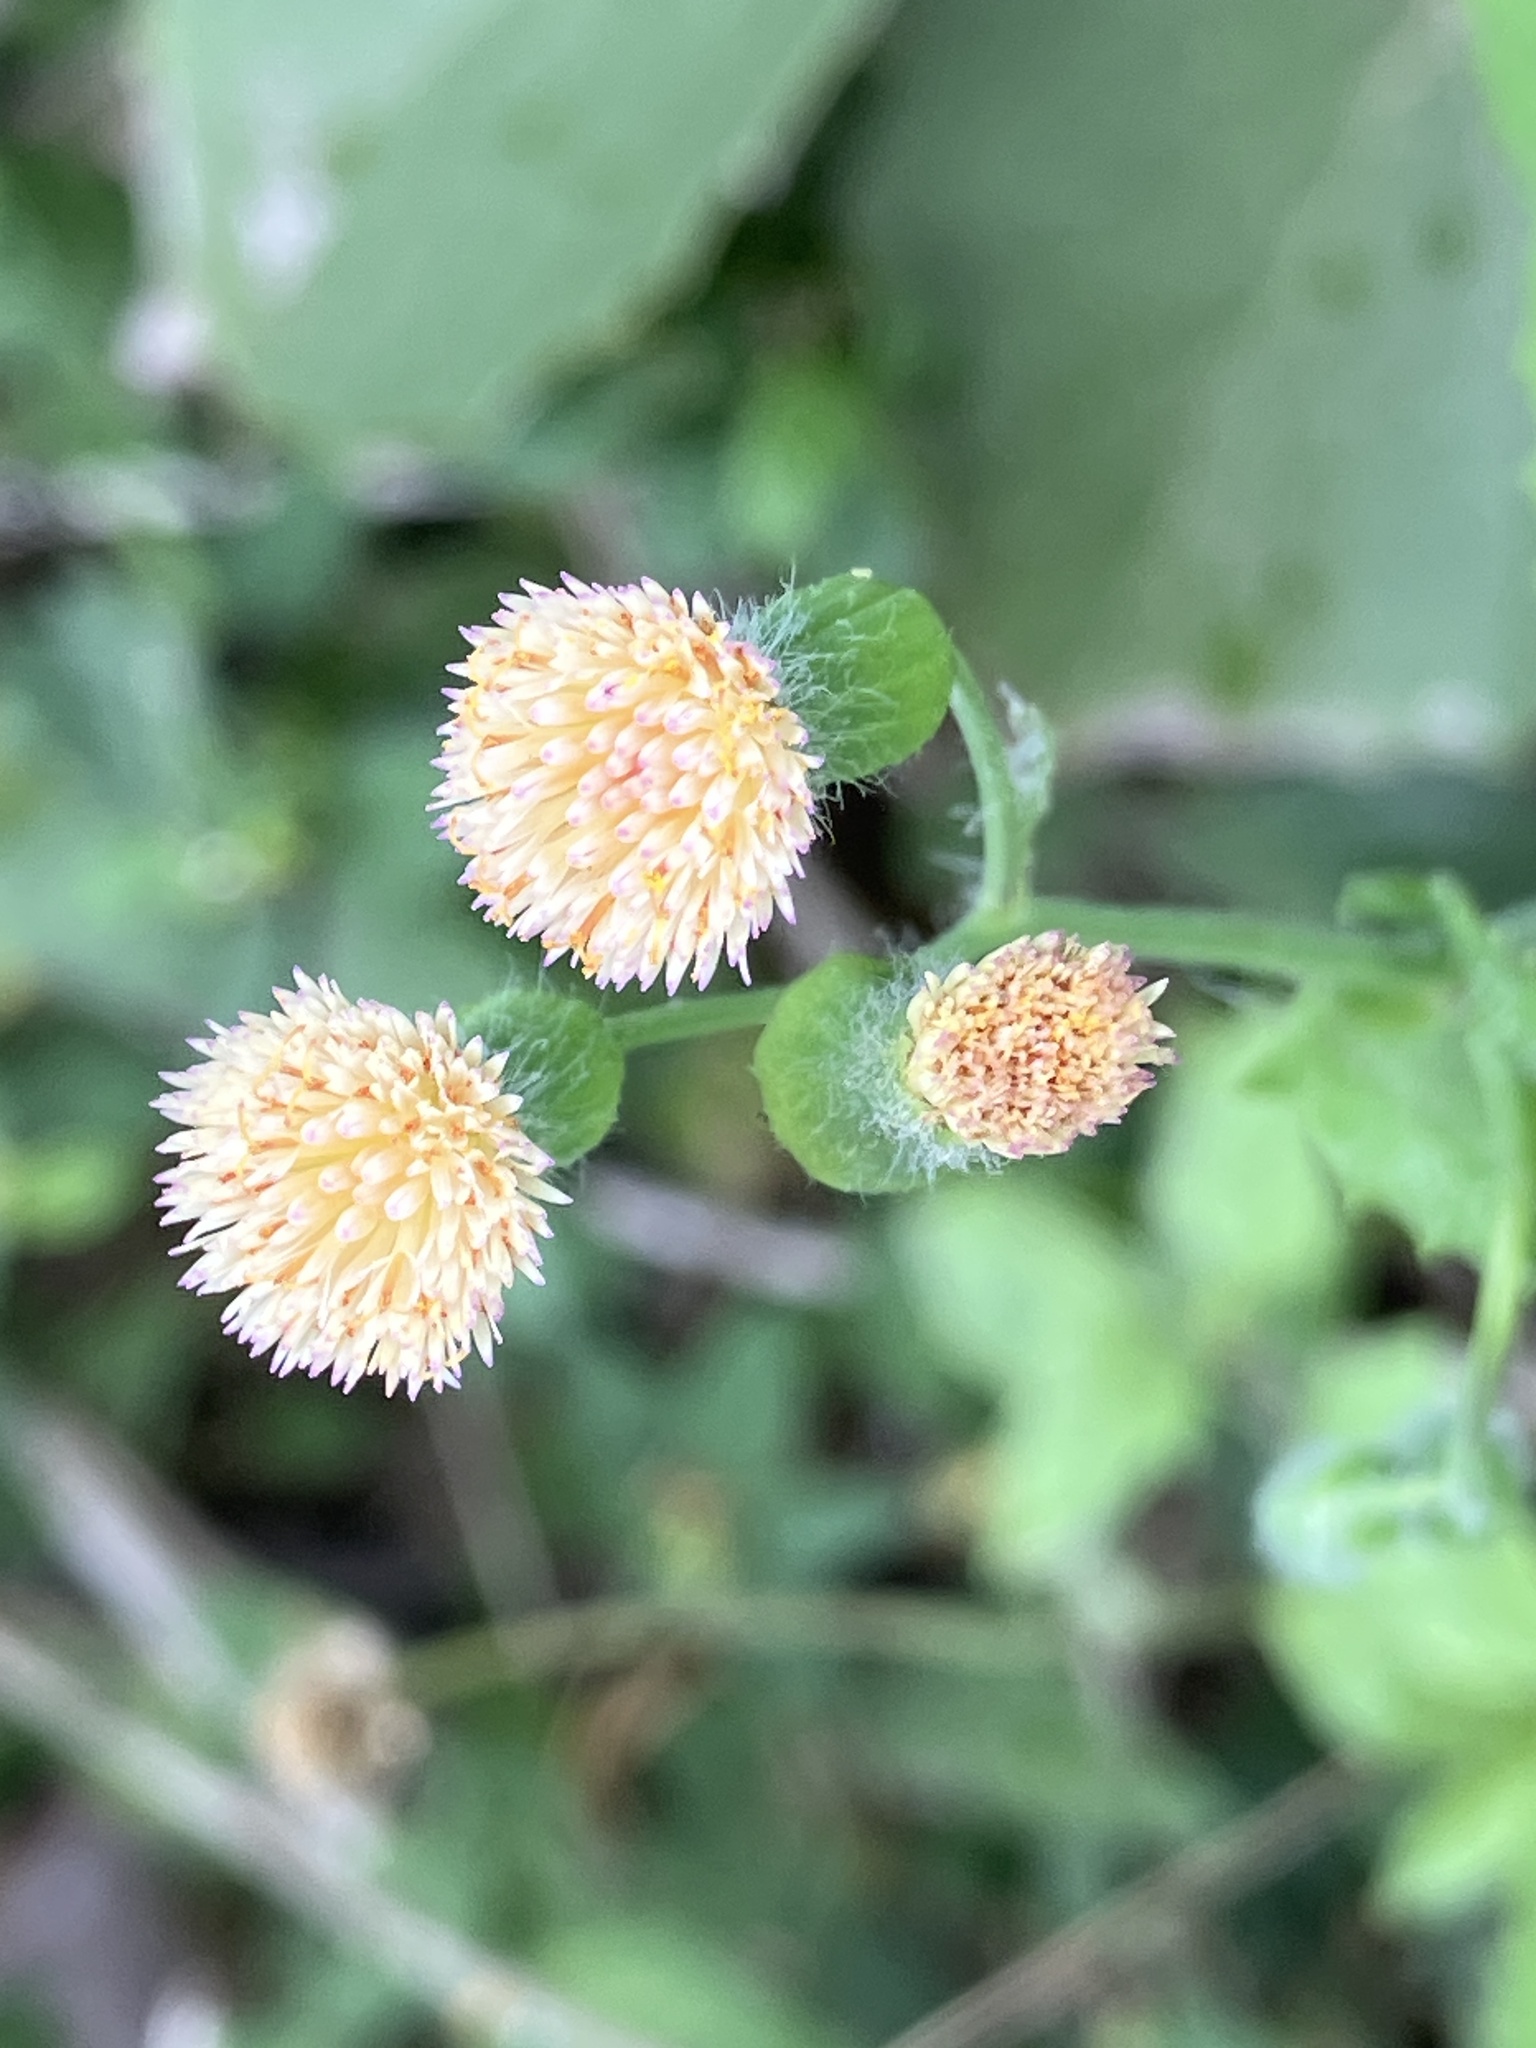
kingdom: Plantae
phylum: Tracheophyta
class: Magnoliopsida
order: Asterales
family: Asteraceae
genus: Emilia
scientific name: Emilia praetermissa
